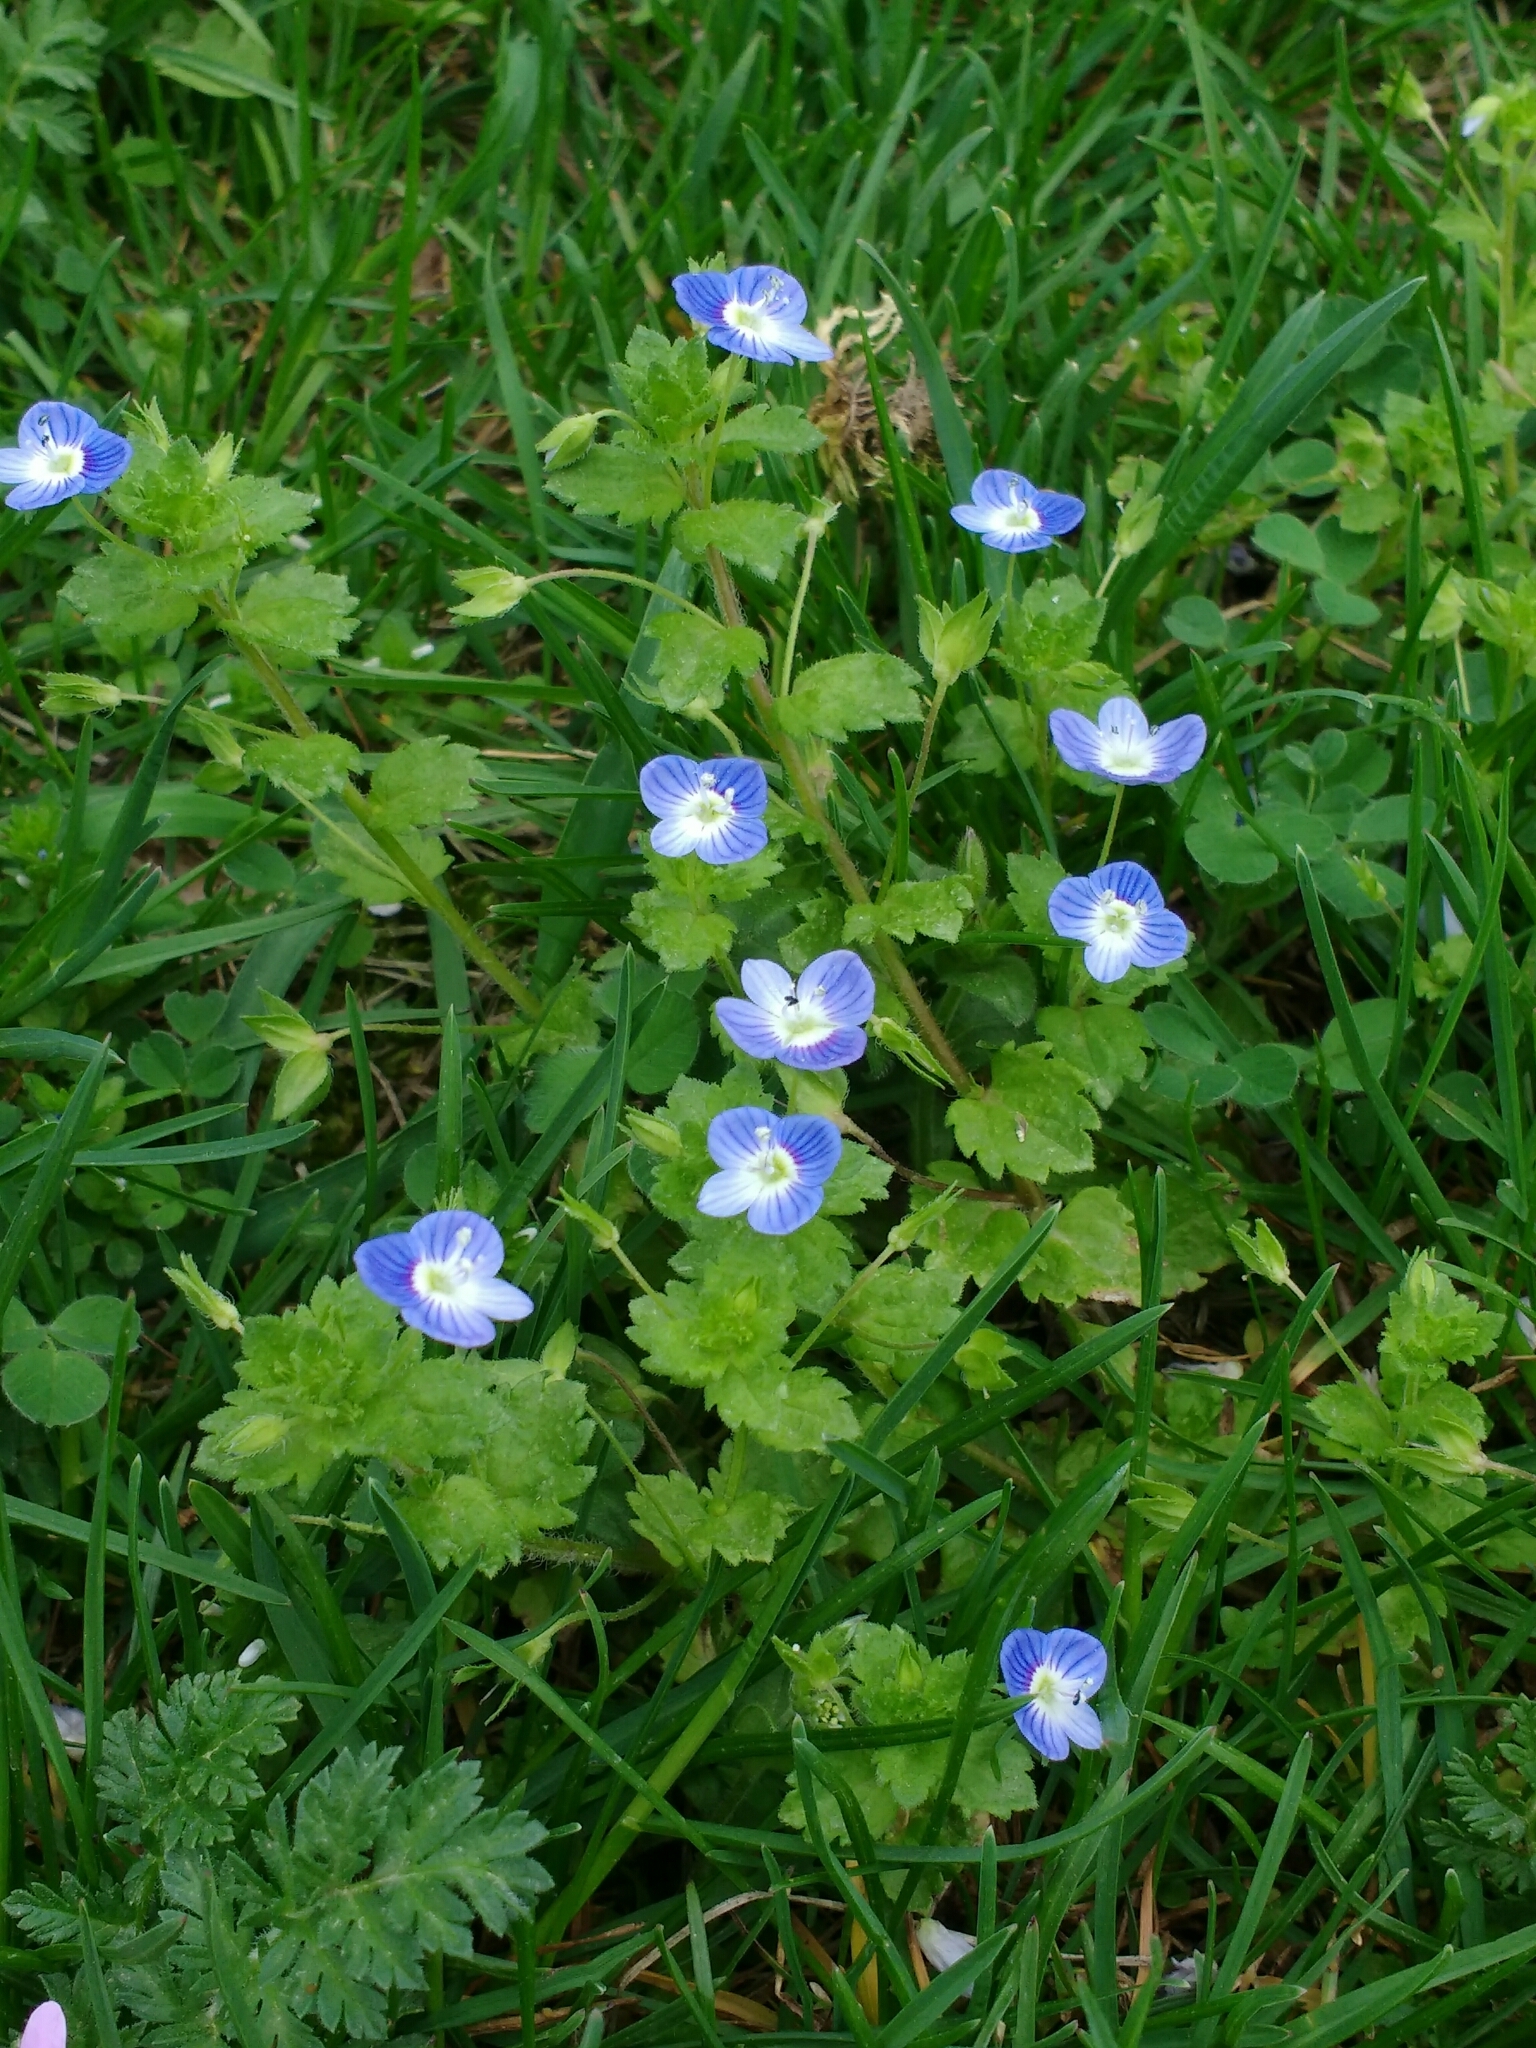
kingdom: Plantae
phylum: Tracheophyta
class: Magnoliopsida
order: Lamiales
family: Plantaginaceae
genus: Veronica
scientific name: Veronica persica
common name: Common field-speedwell
